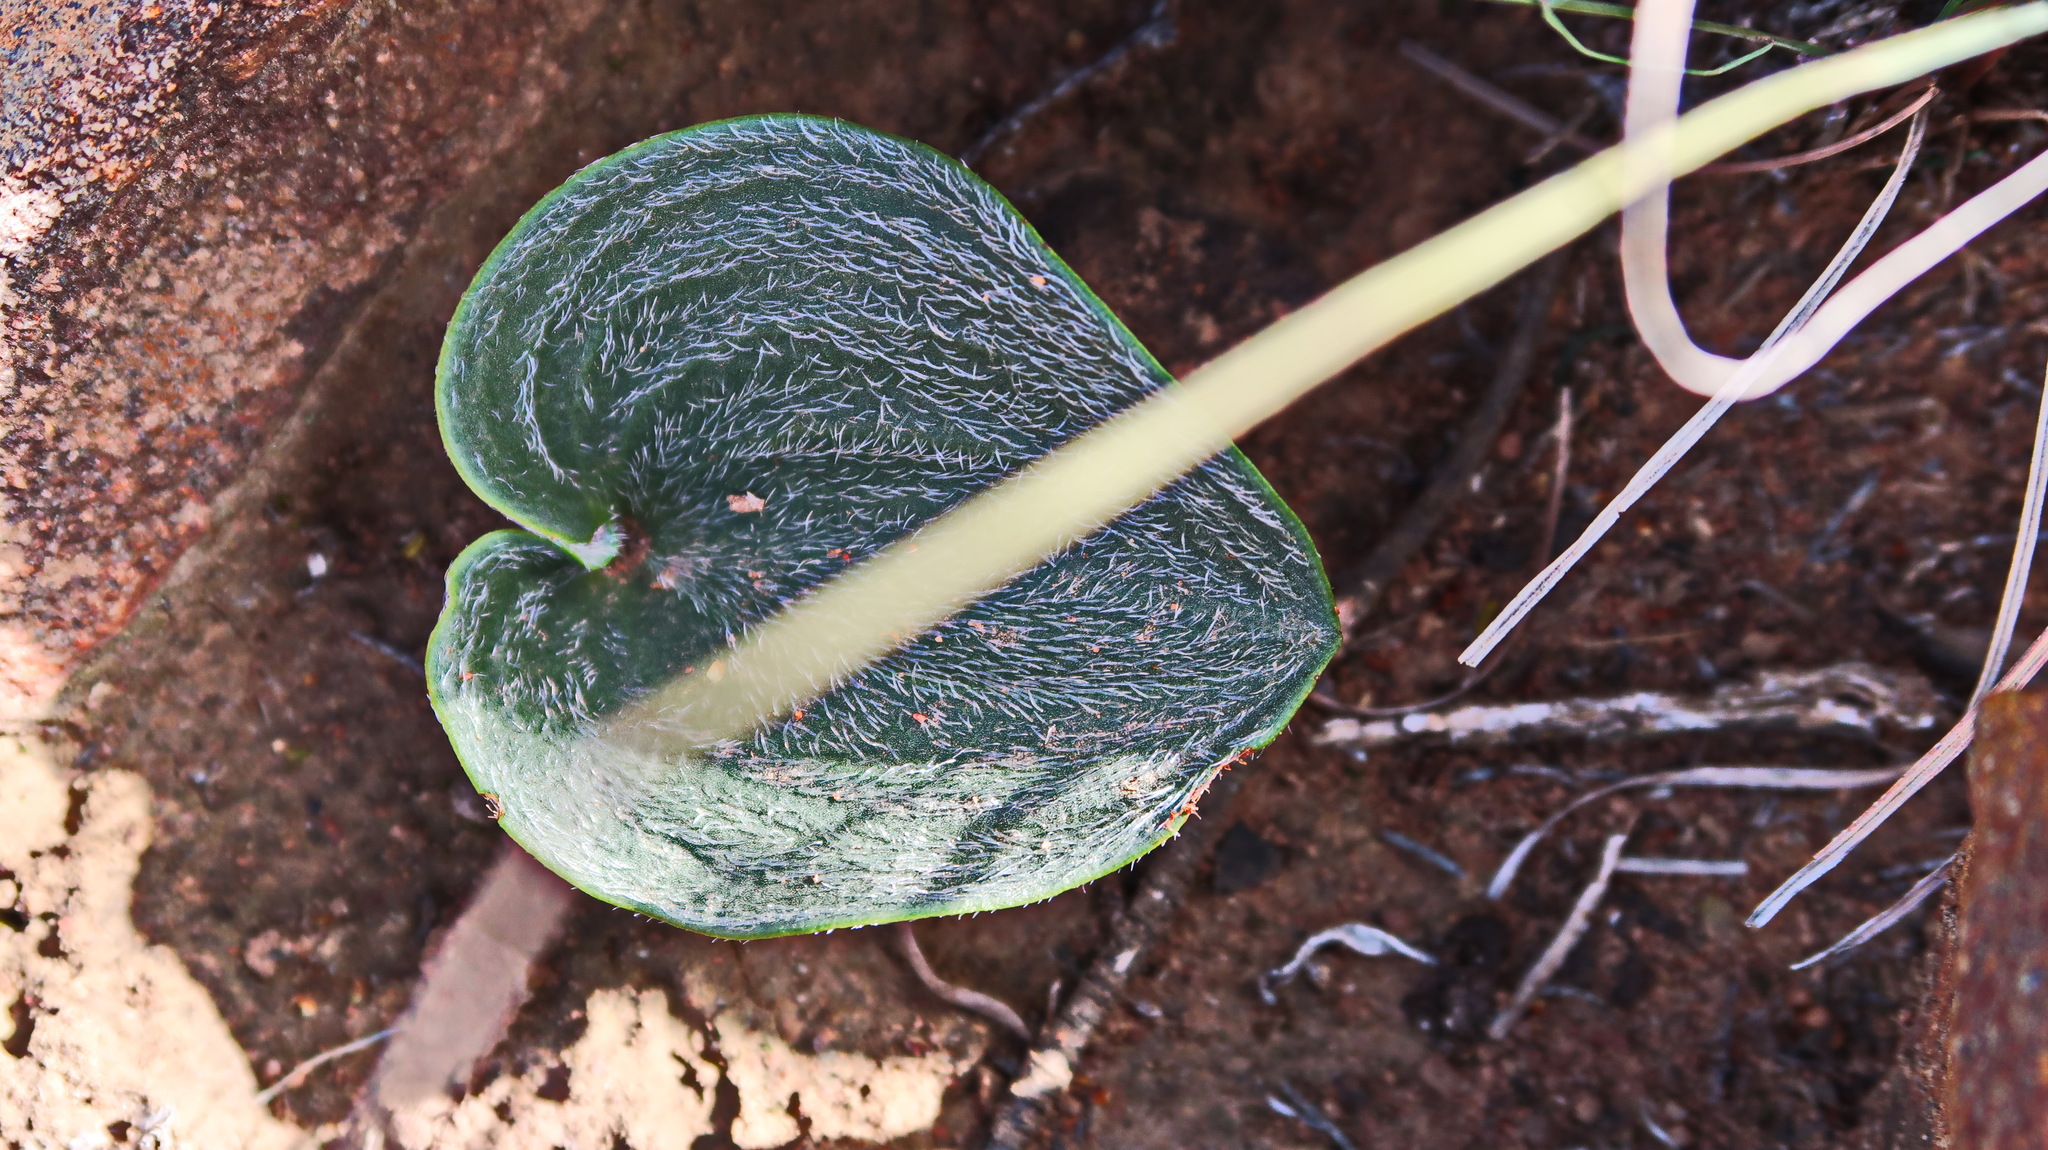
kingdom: Plantae
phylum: Tracheophyta
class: Liliopsida
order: Asparagales
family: Asparagaceae
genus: Eriospermum
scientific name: Eriospermum capense
